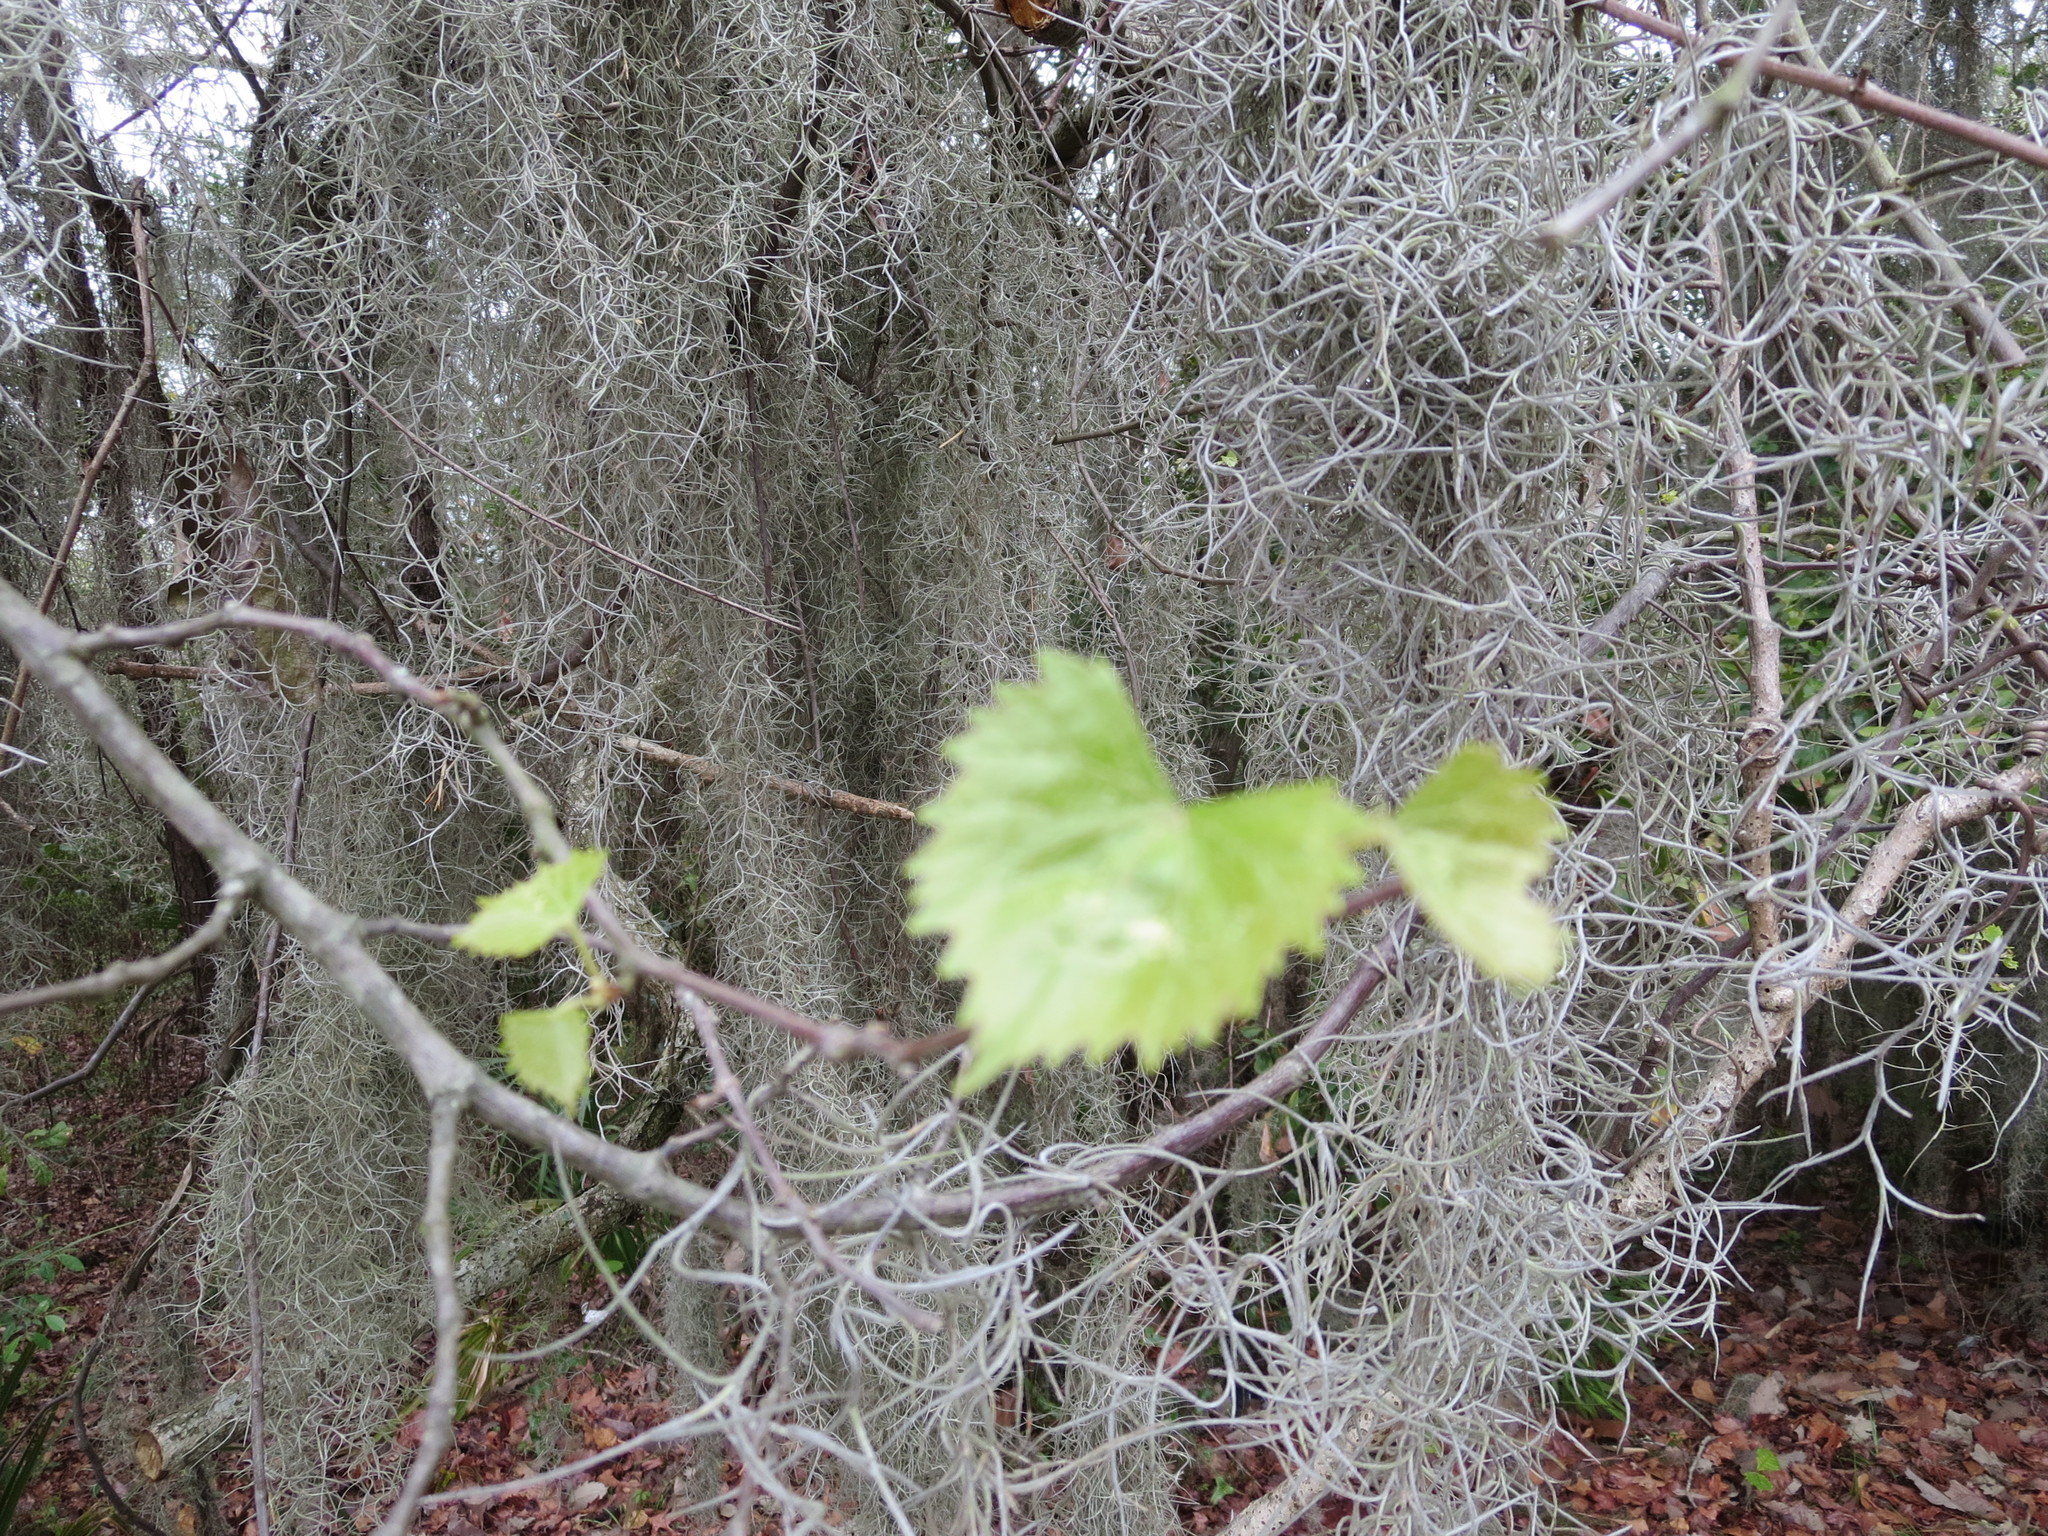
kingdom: Plantae
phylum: Tracheophyta
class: Magnoliopsida
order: Vitales
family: Vitaceae
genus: Vitis
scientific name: Vitis rotundifolia
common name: Muscadine grape
